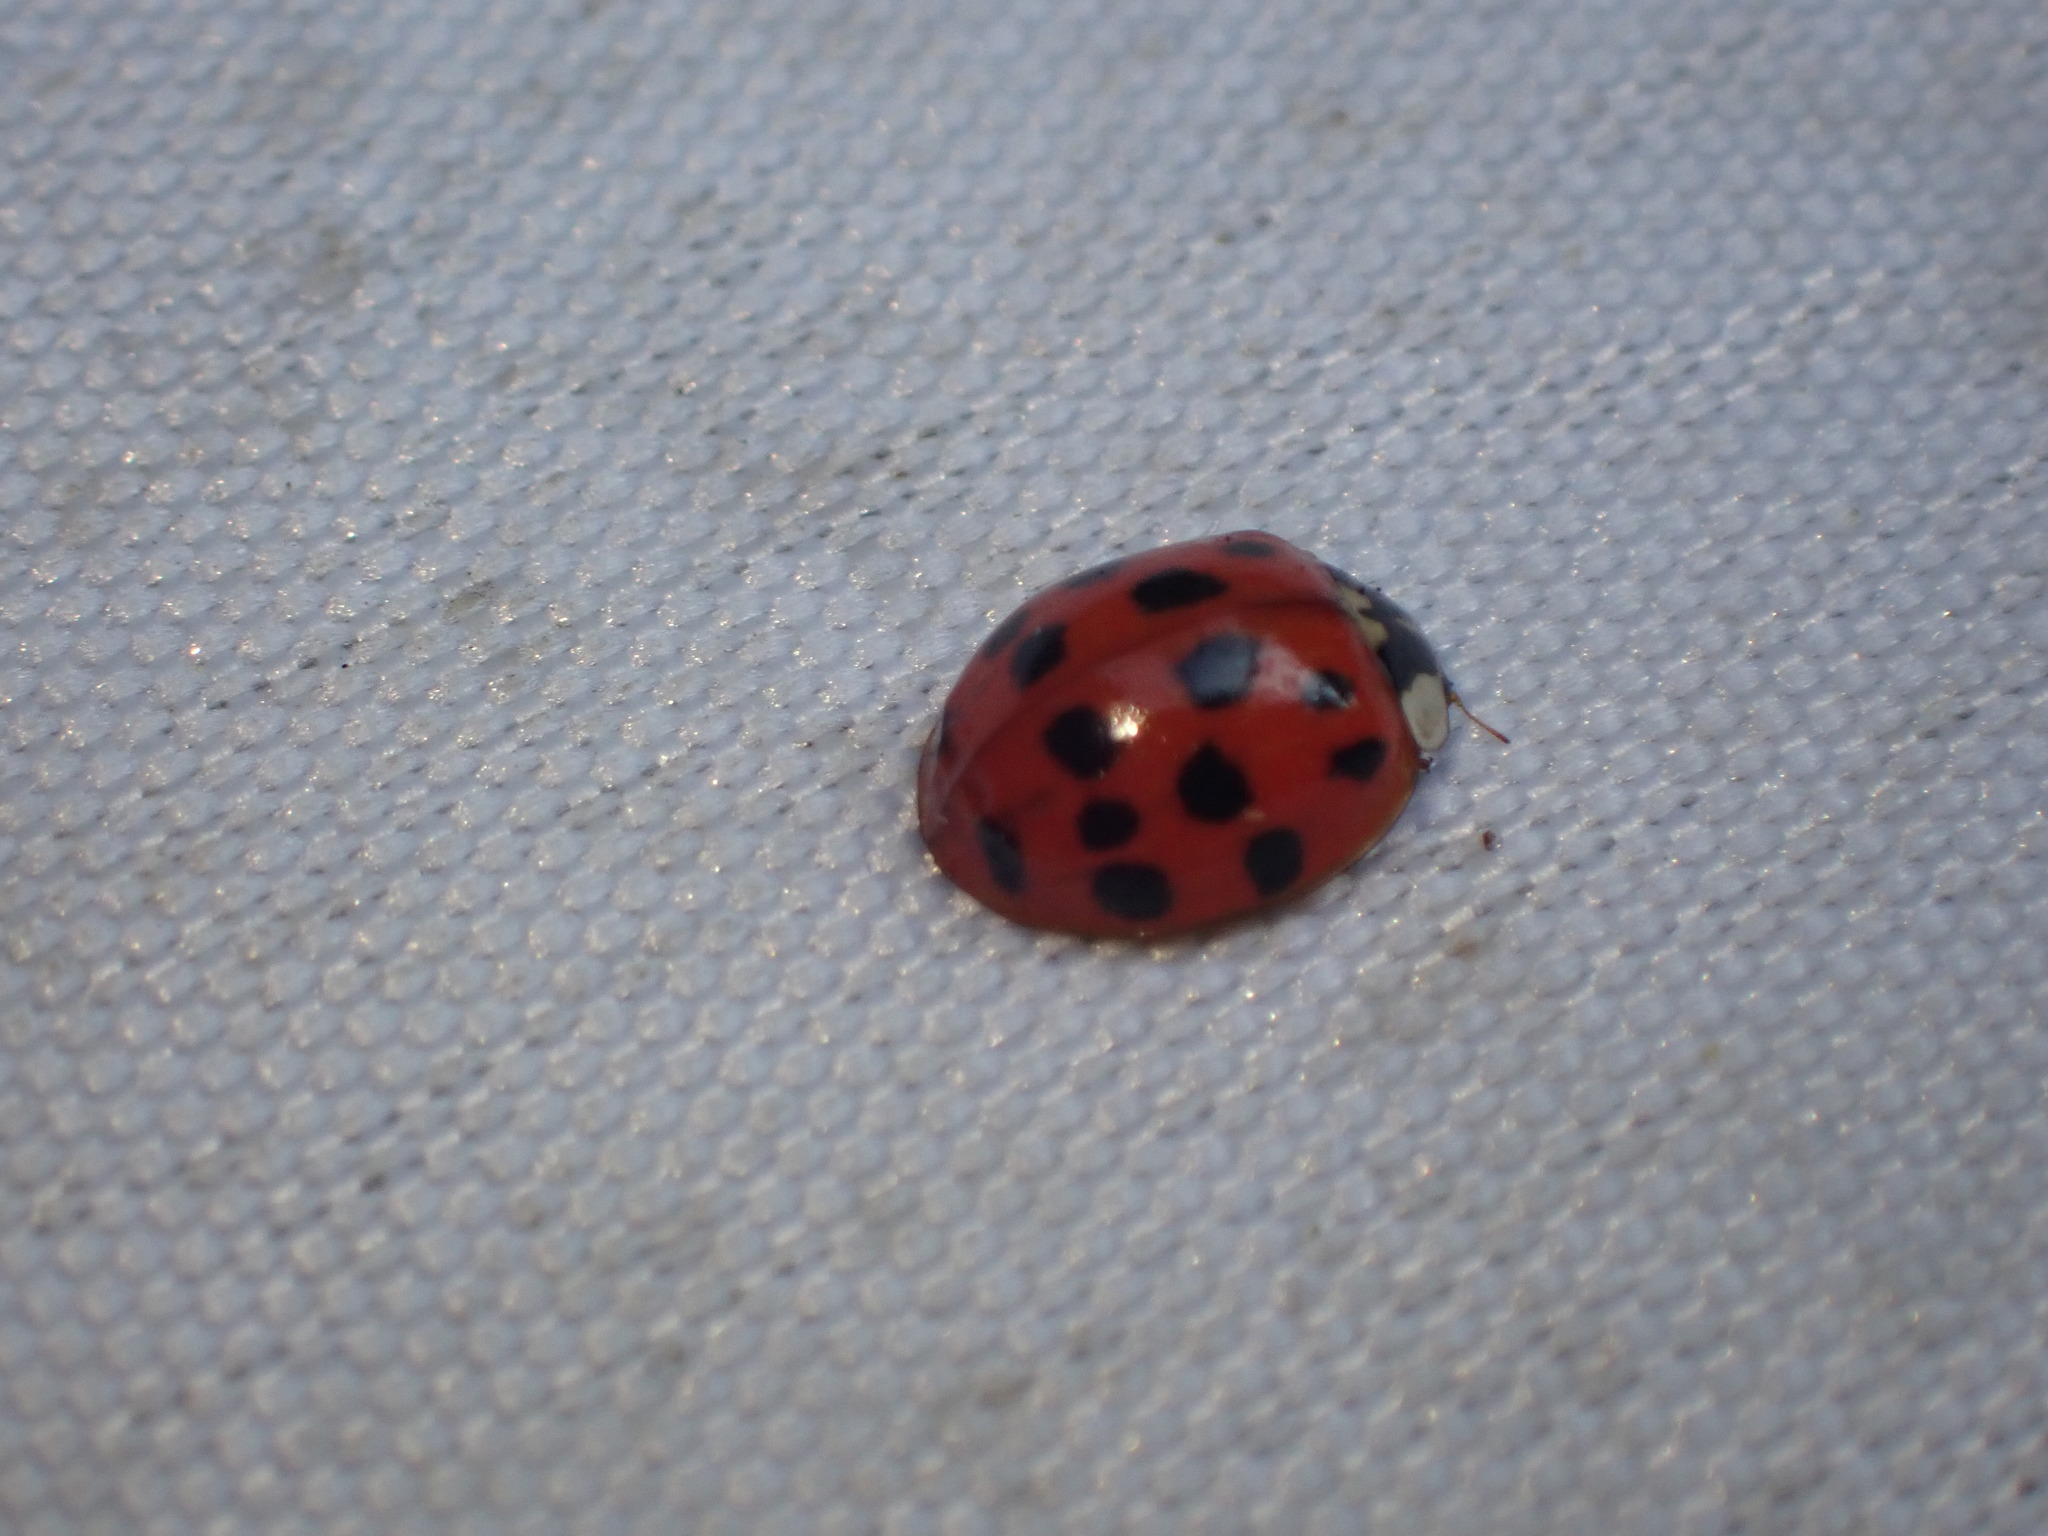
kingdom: Animalia
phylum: Arthropoda
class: Insecta
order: Coleoptera
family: Coccinellidae
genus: Harmonia
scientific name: Harmonia axyridis
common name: Harlequin ladybird
